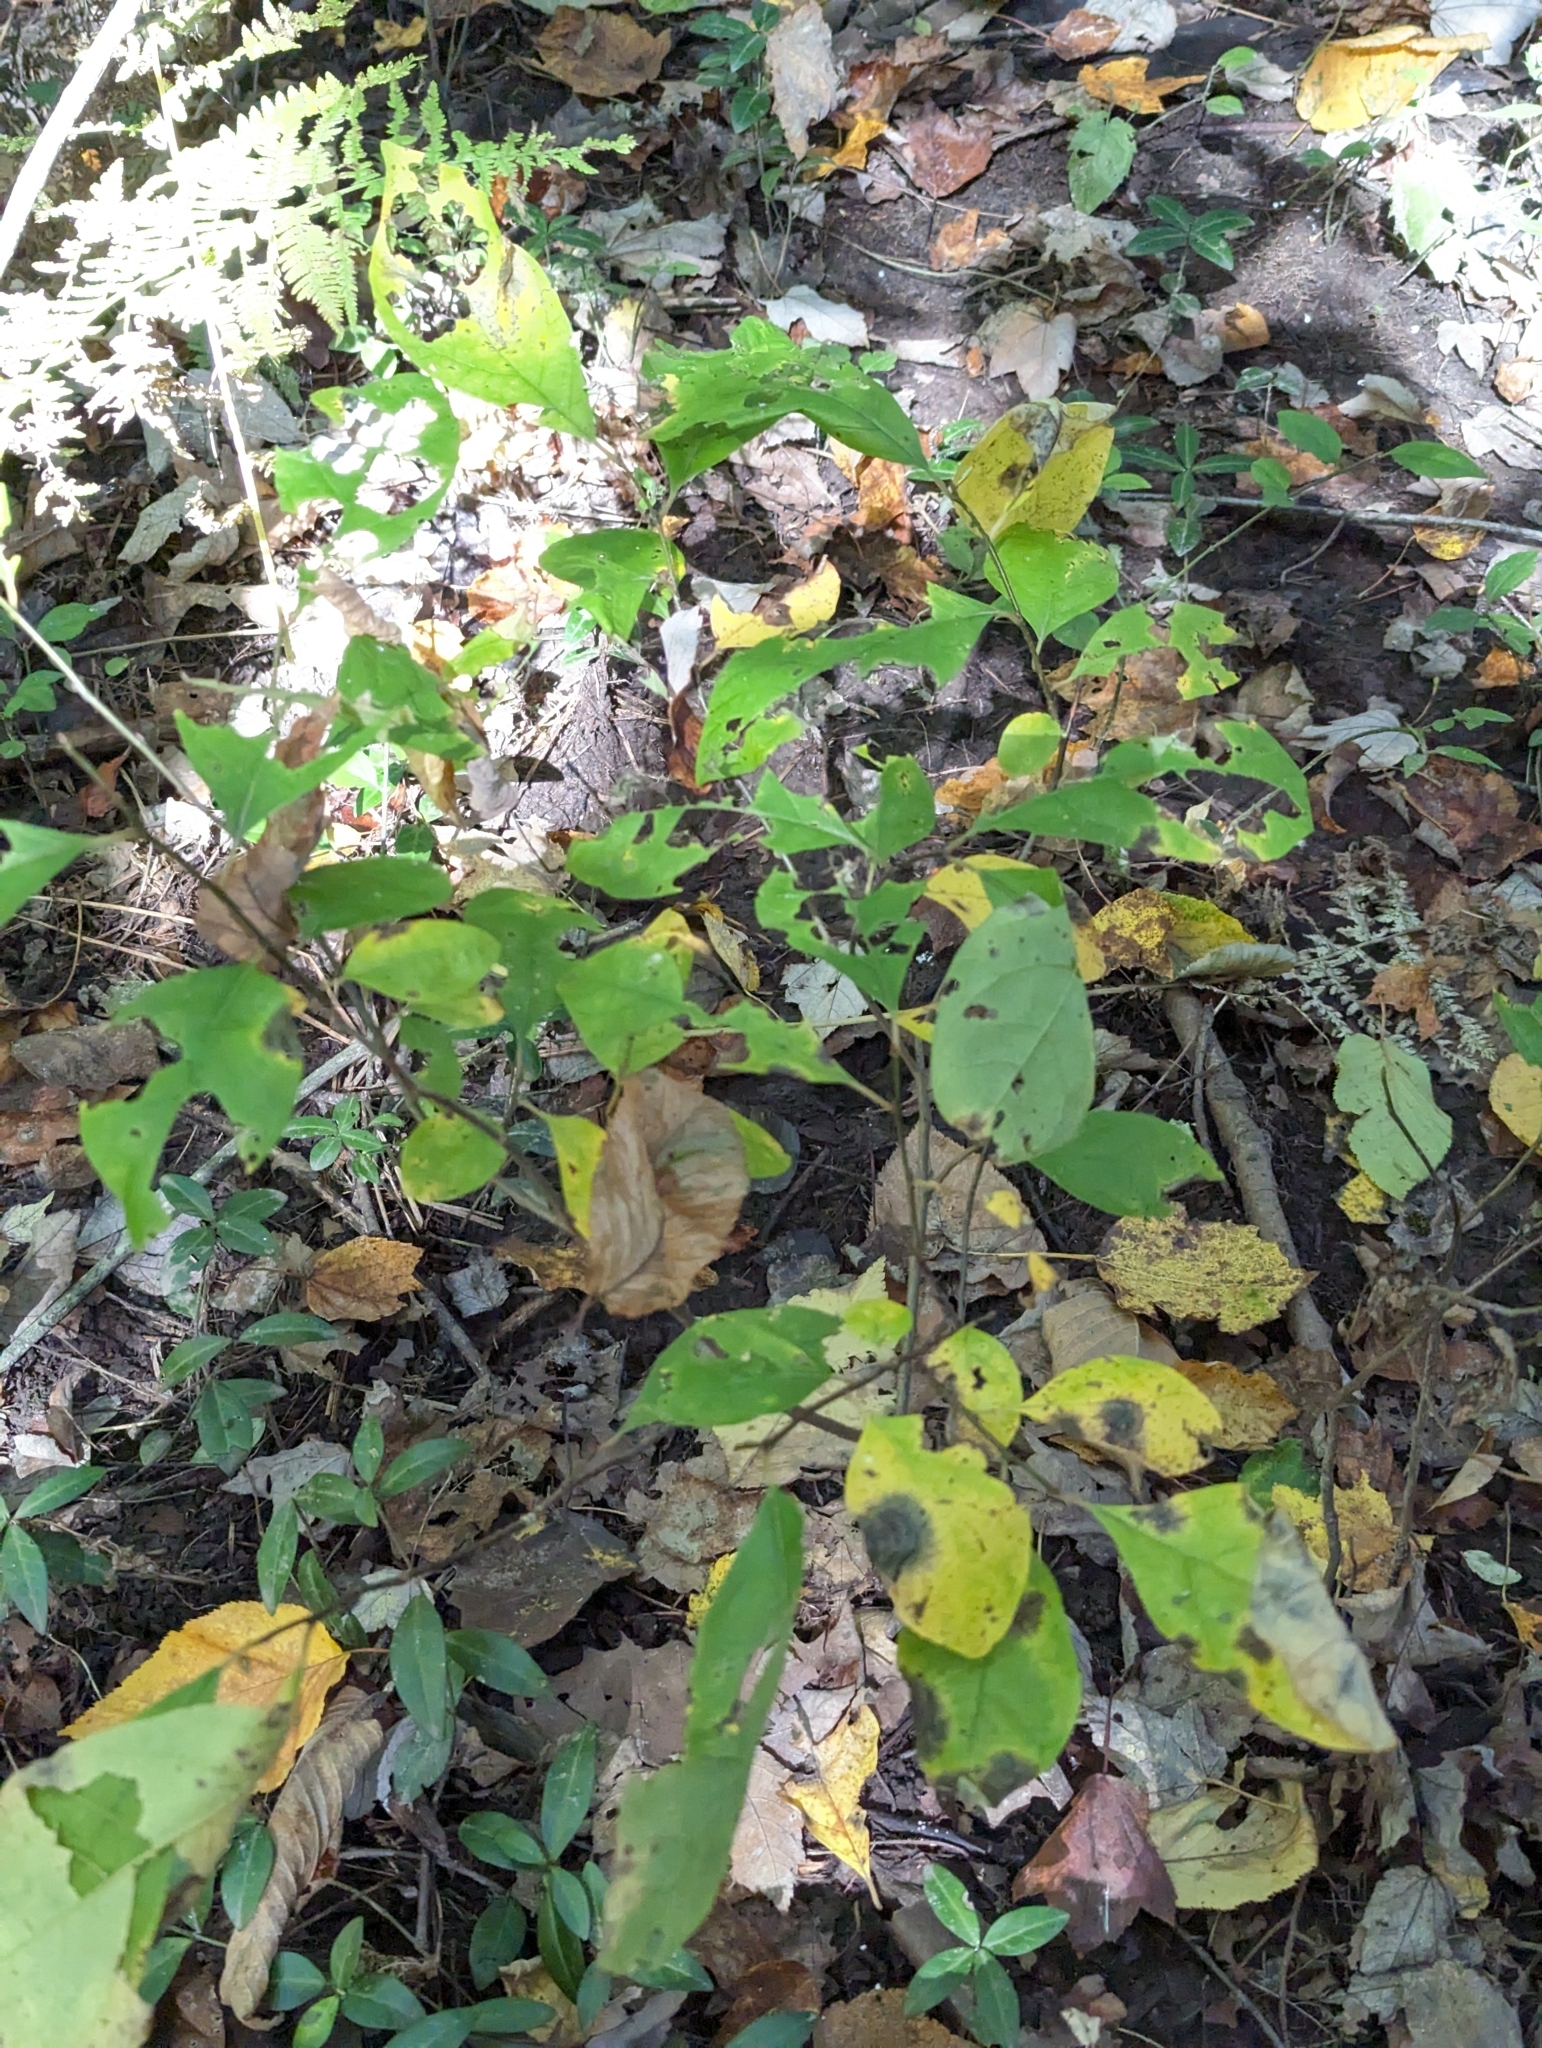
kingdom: Plantae
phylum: Tracheophyta
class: Magnoliopsida
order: Laurales
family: Lauraceae
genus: Lindera
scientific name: Lindera benzoin
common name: Spicebush
